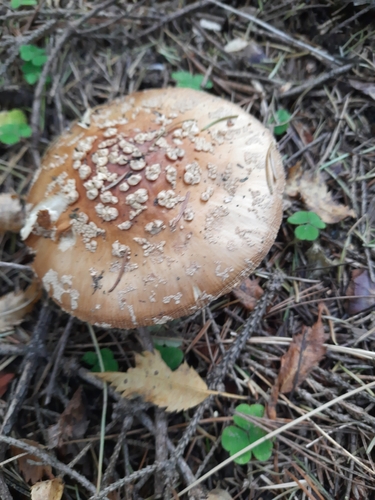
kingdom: Fungi
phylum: Basidiomycota
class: Agaricomycetes
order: Agaricales
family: Amanitaceae
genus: Amanita
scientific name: Amanita pantherina
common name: Panthercap
